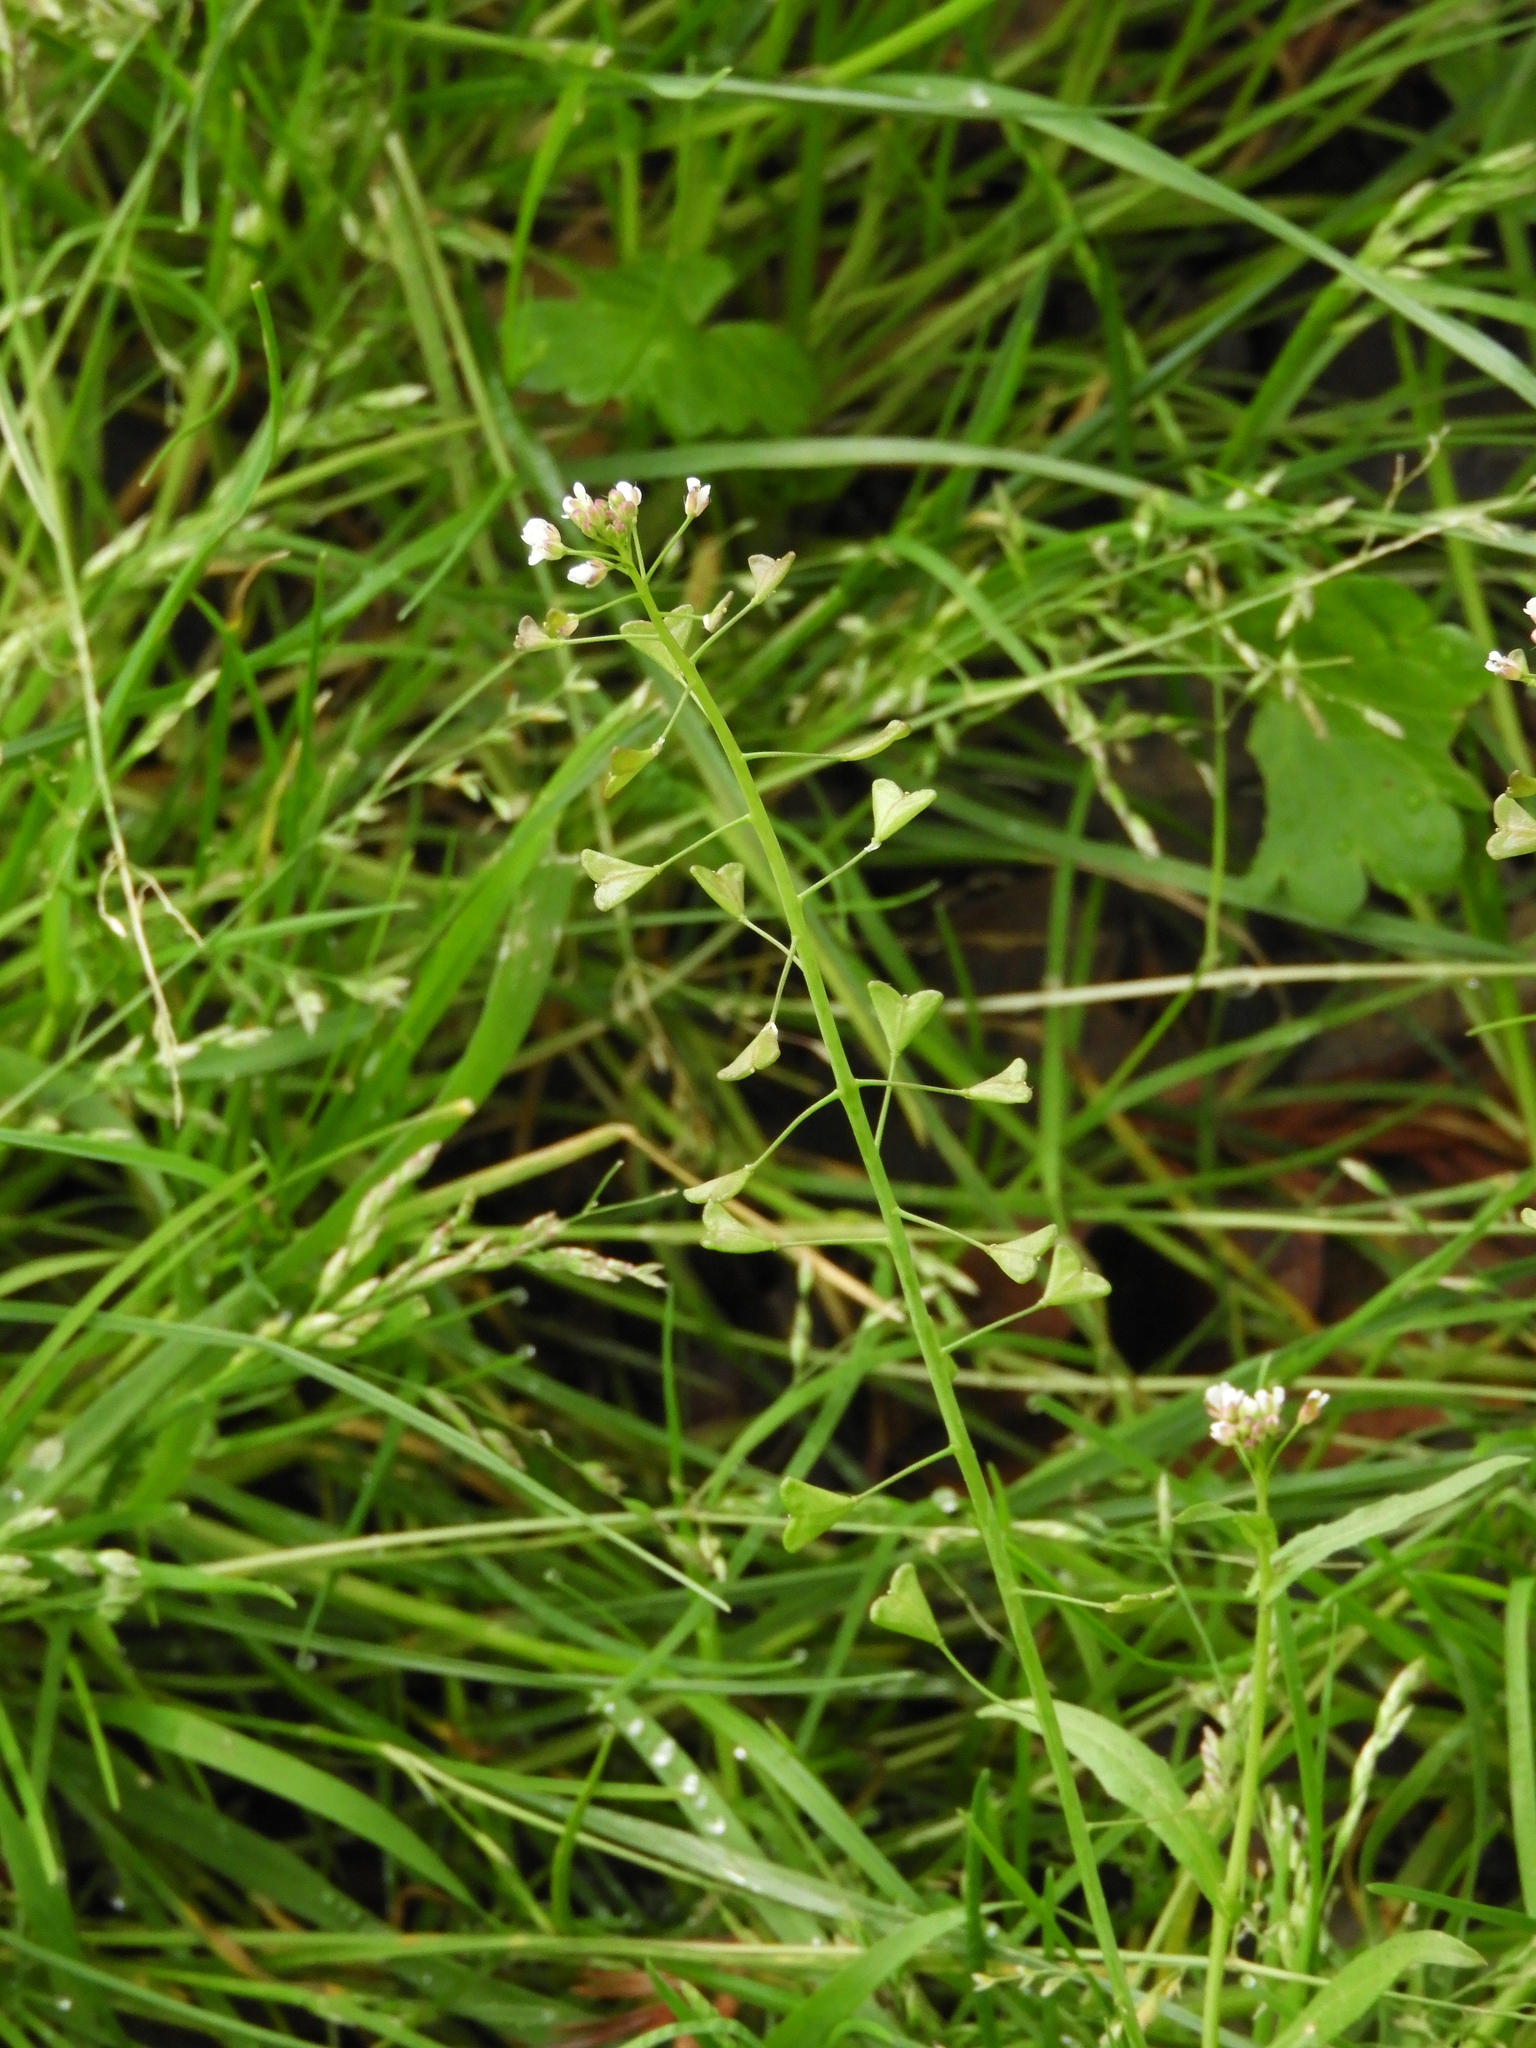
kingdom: Plantae
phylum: Tracheophyta
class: Magnoliopsida
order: Brassicales
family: Brassicaceae
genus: Capsella
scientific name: Capsella bursa-pastoris
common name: Shepherd's purse
